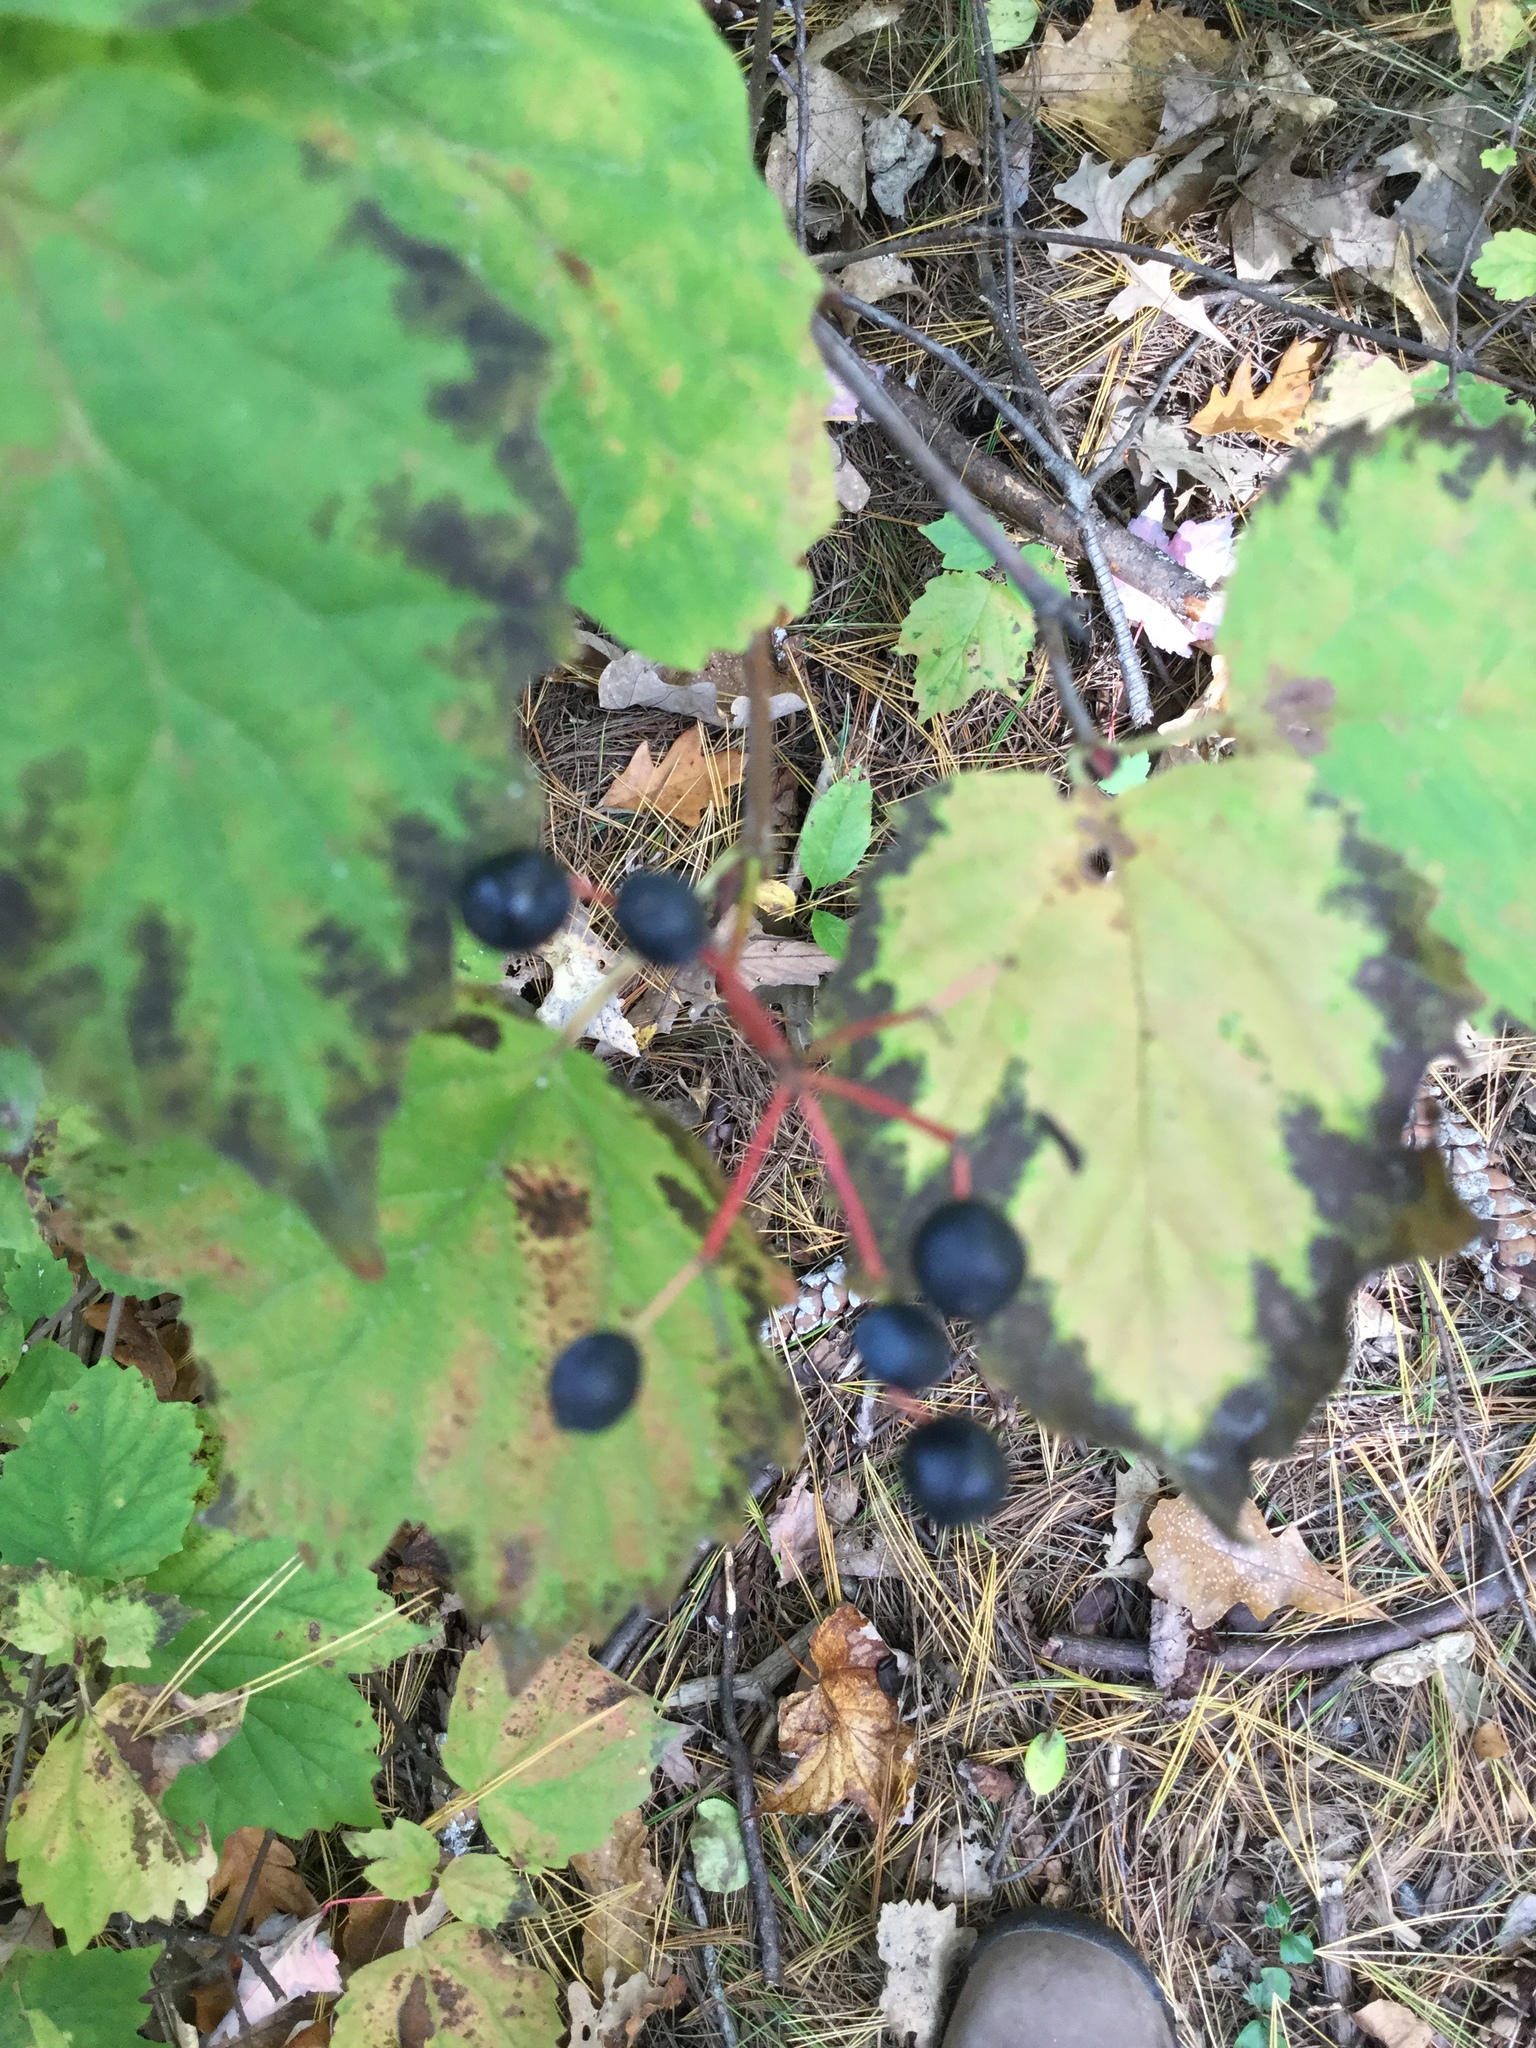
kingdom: Plantae
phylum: Tracheophyta
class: Magnoliopsida
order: Dipsacales
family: Viburnaceae
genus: Viburnum
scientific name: Viburnum acerifolium
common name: Dockmackie
